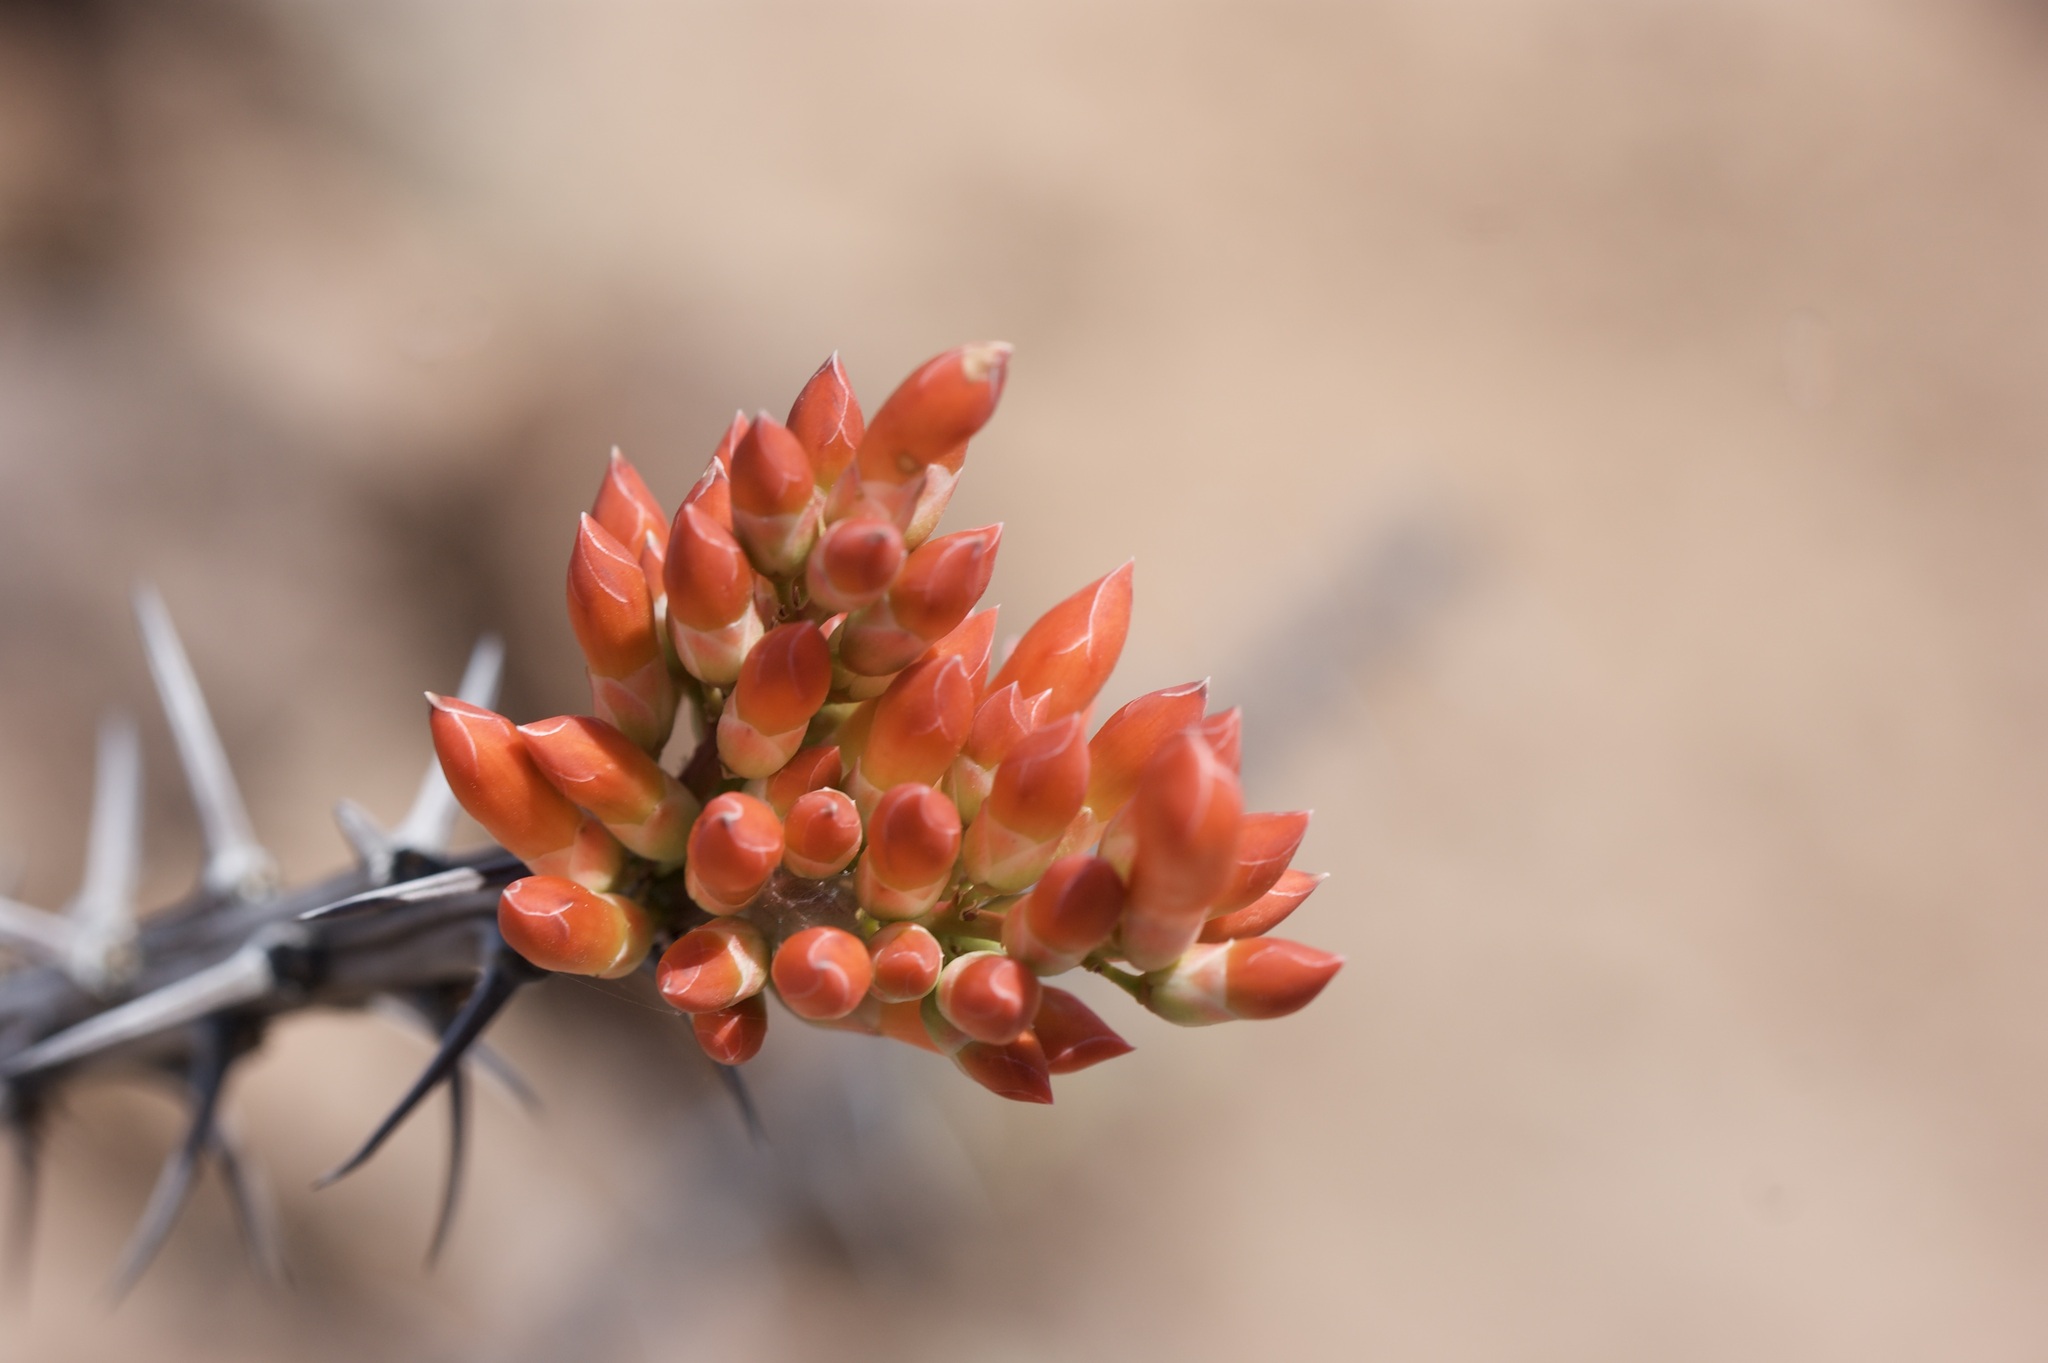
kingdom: Plantae
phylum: Tracheophyta
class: Magnoliopsida
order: Ericales
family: Fouquieriaceae
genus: Fouquieria
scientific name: Fouquieria splendens
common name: Vine-cactus
